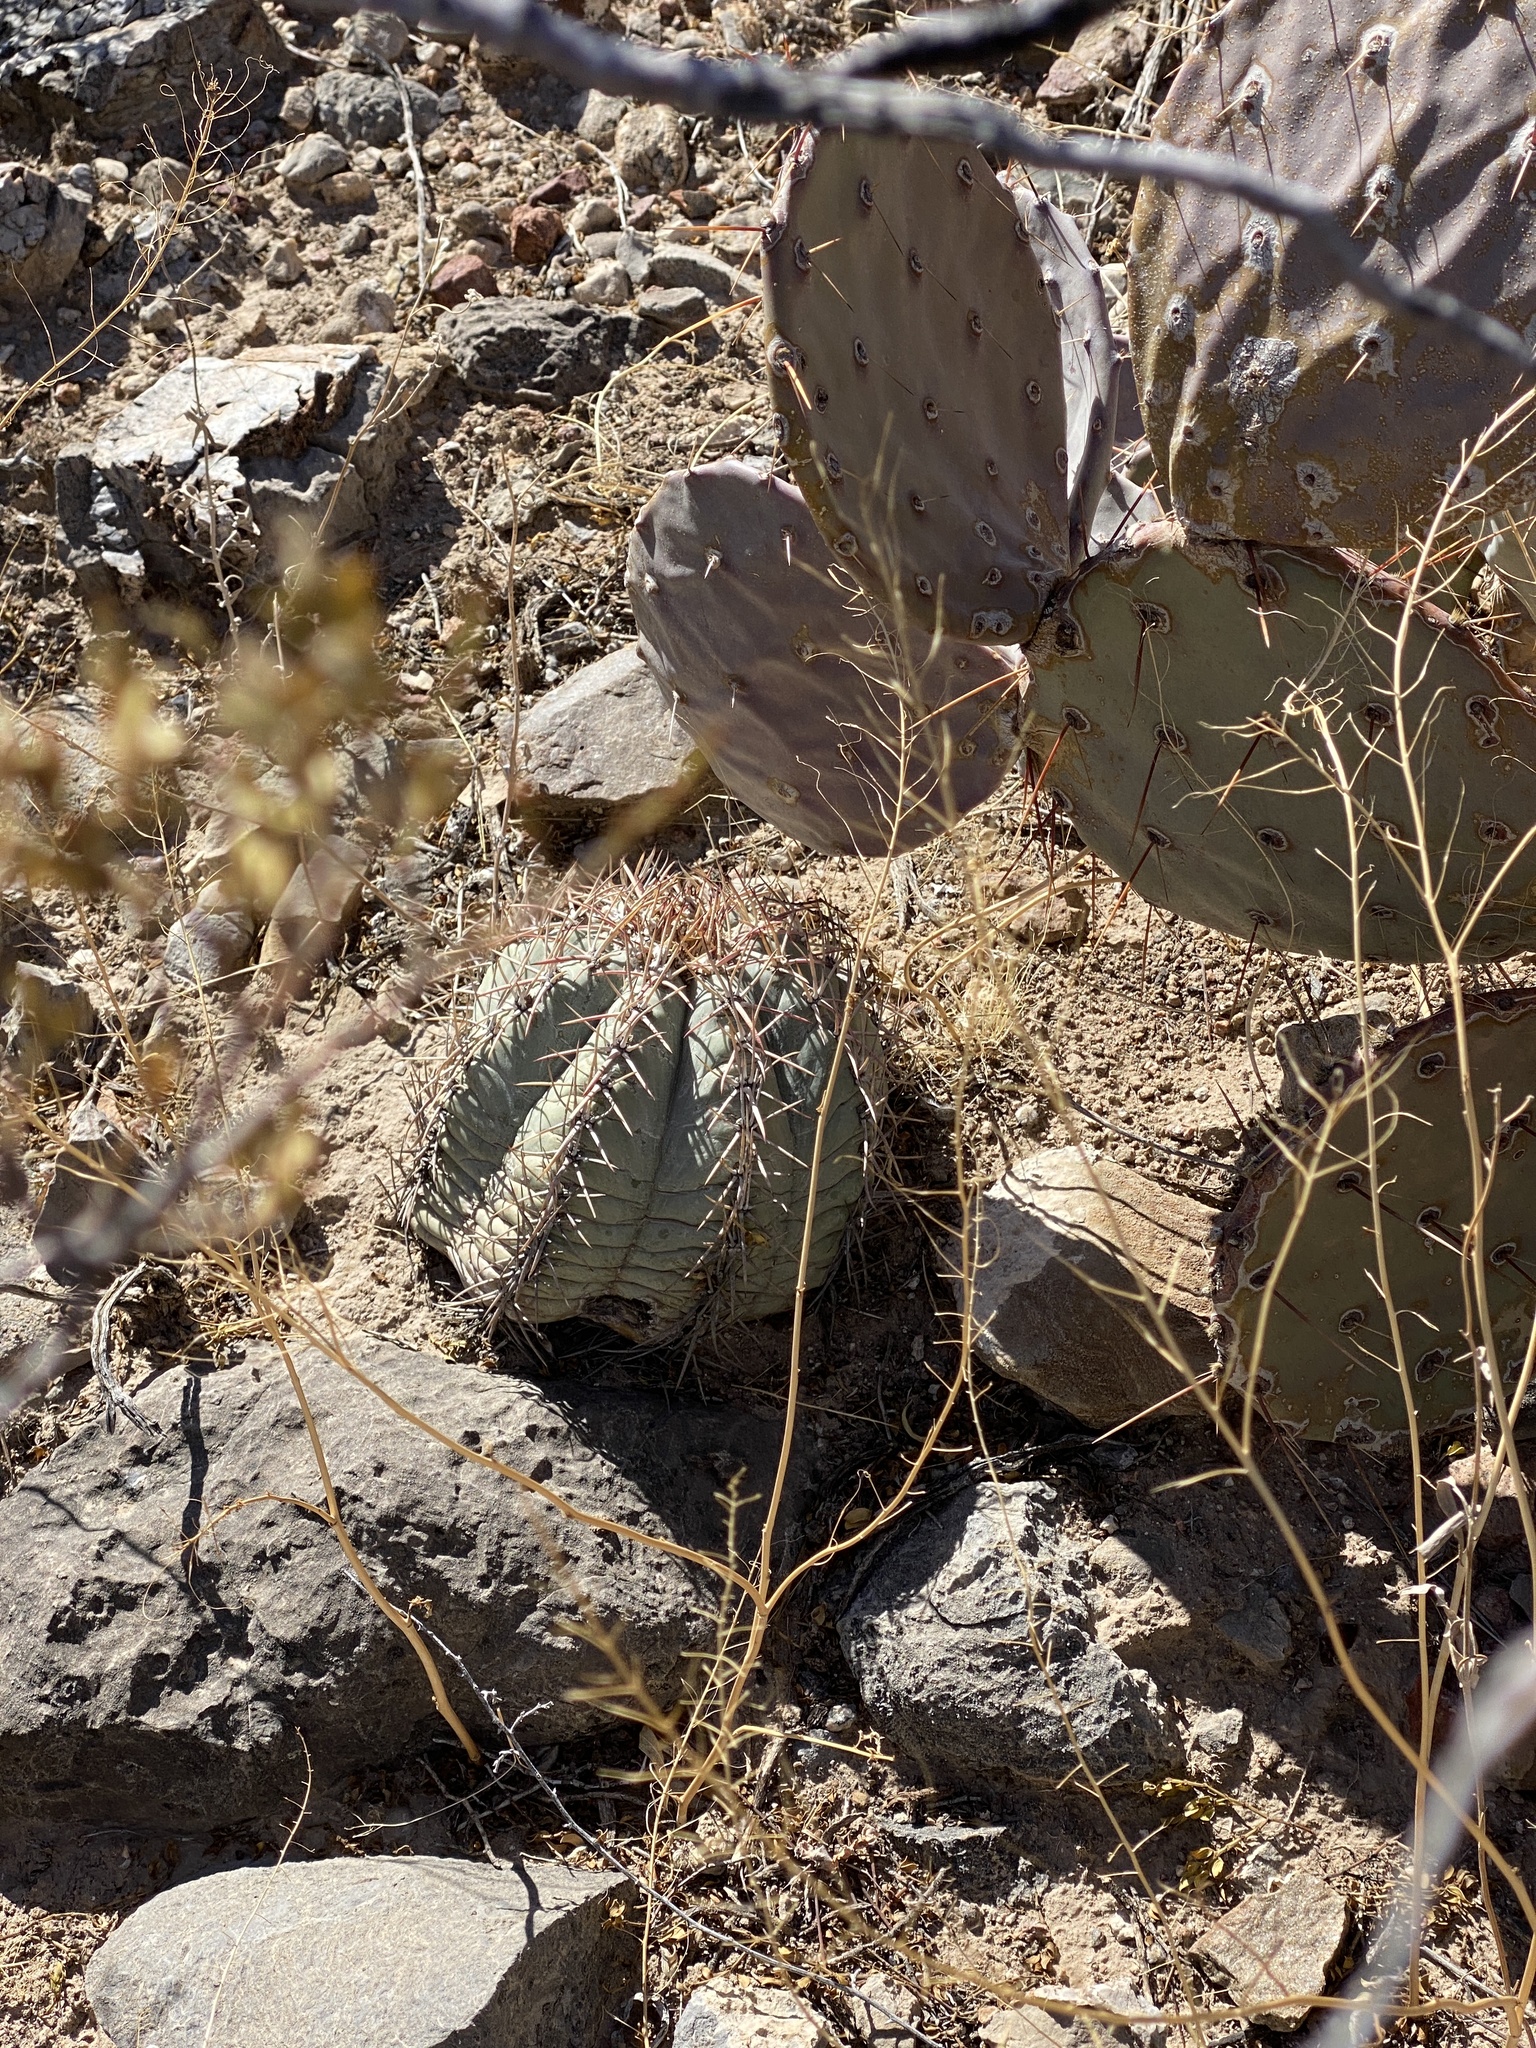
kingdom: Plantae
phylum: Tracheophyta
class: Magnoliopsida
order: Caryophyllales
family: Cactaceae
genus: Echinocactus
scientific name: Echinocactus horizonthalonius
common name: Devilshead
